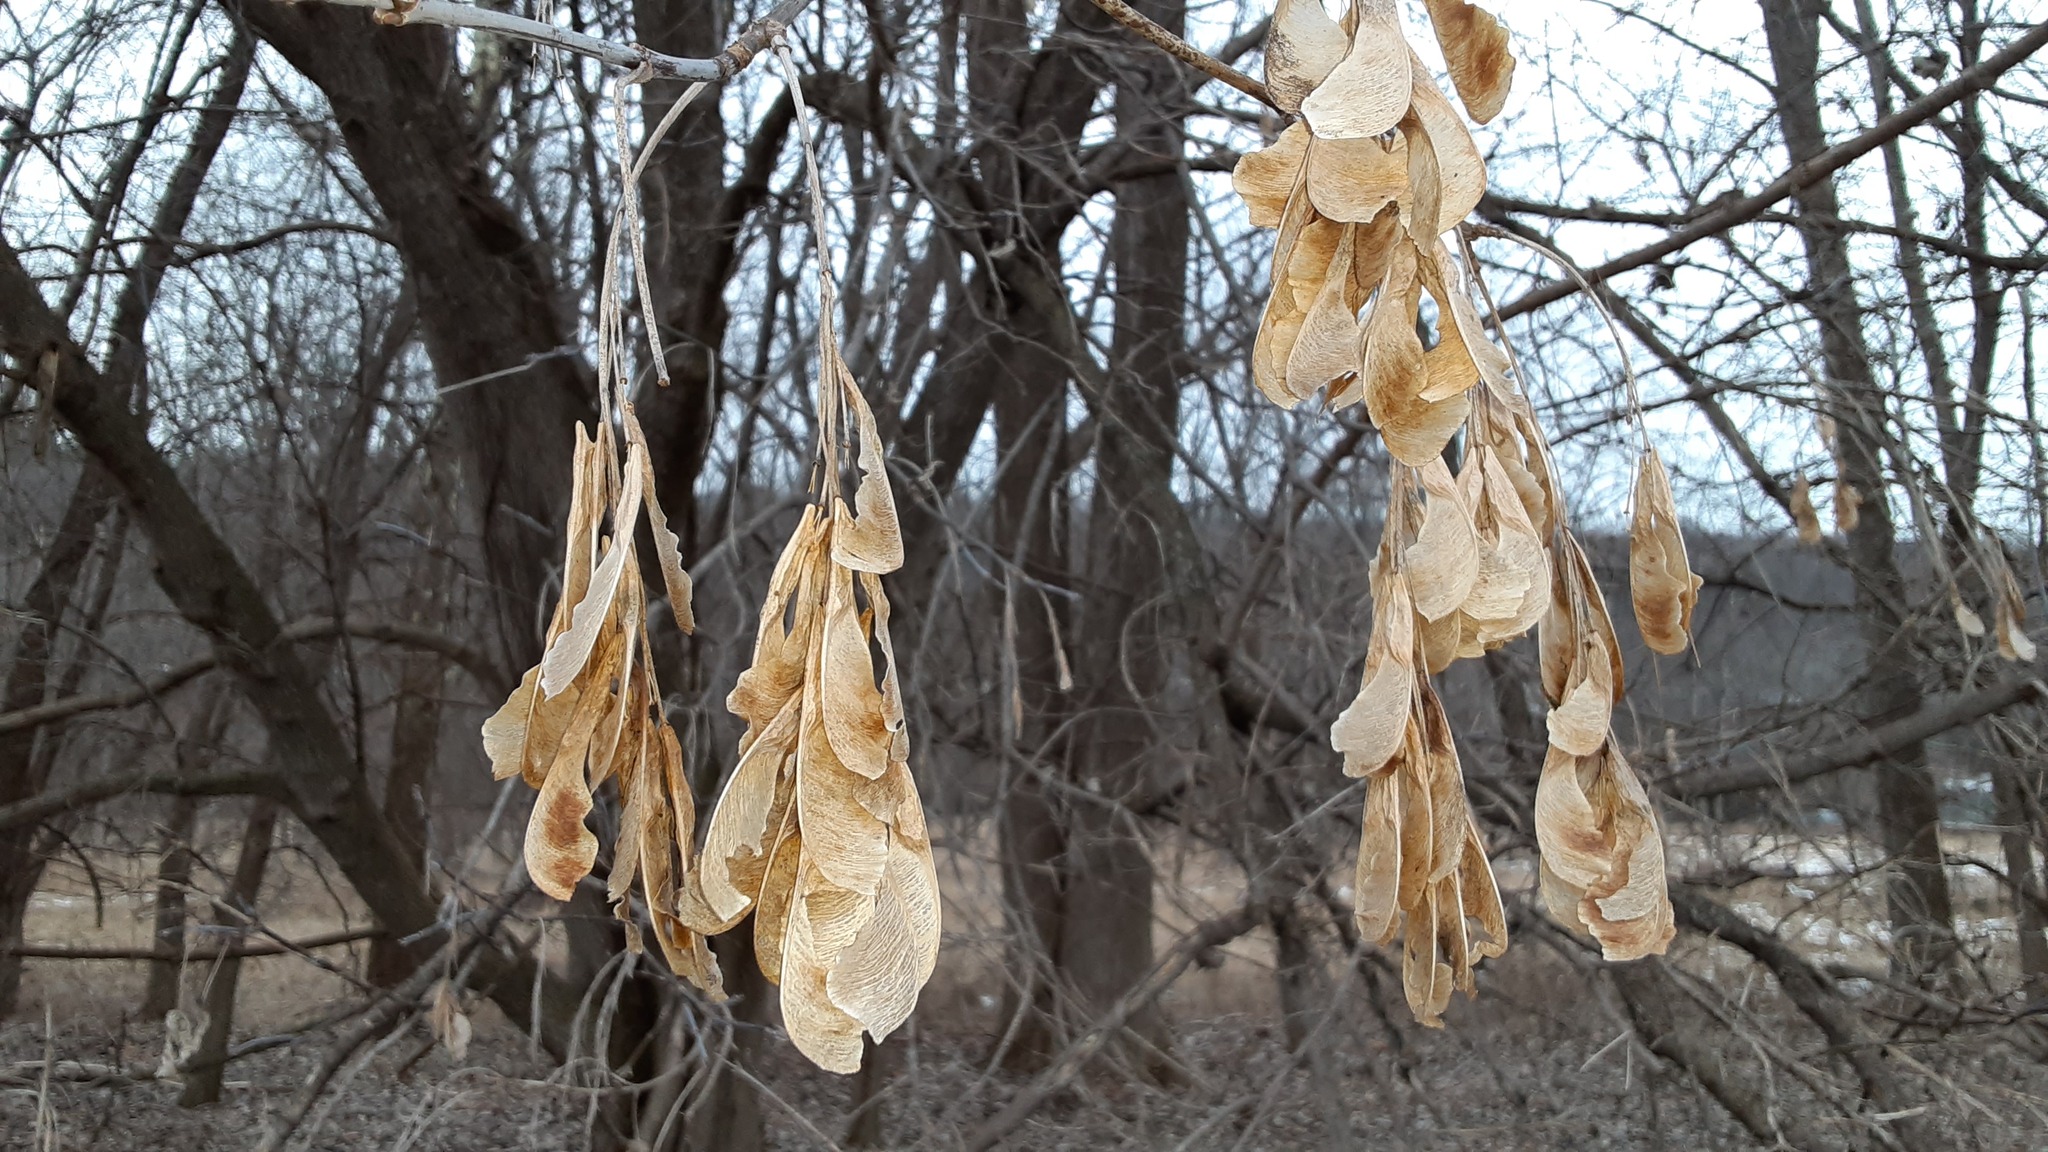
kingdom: Plantae
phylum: Tracheophyta
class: Magnoliopsida
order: Sapindales
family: Sapindaceae
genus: Acer
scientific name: Acer negundo
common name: Ashleaf maple
